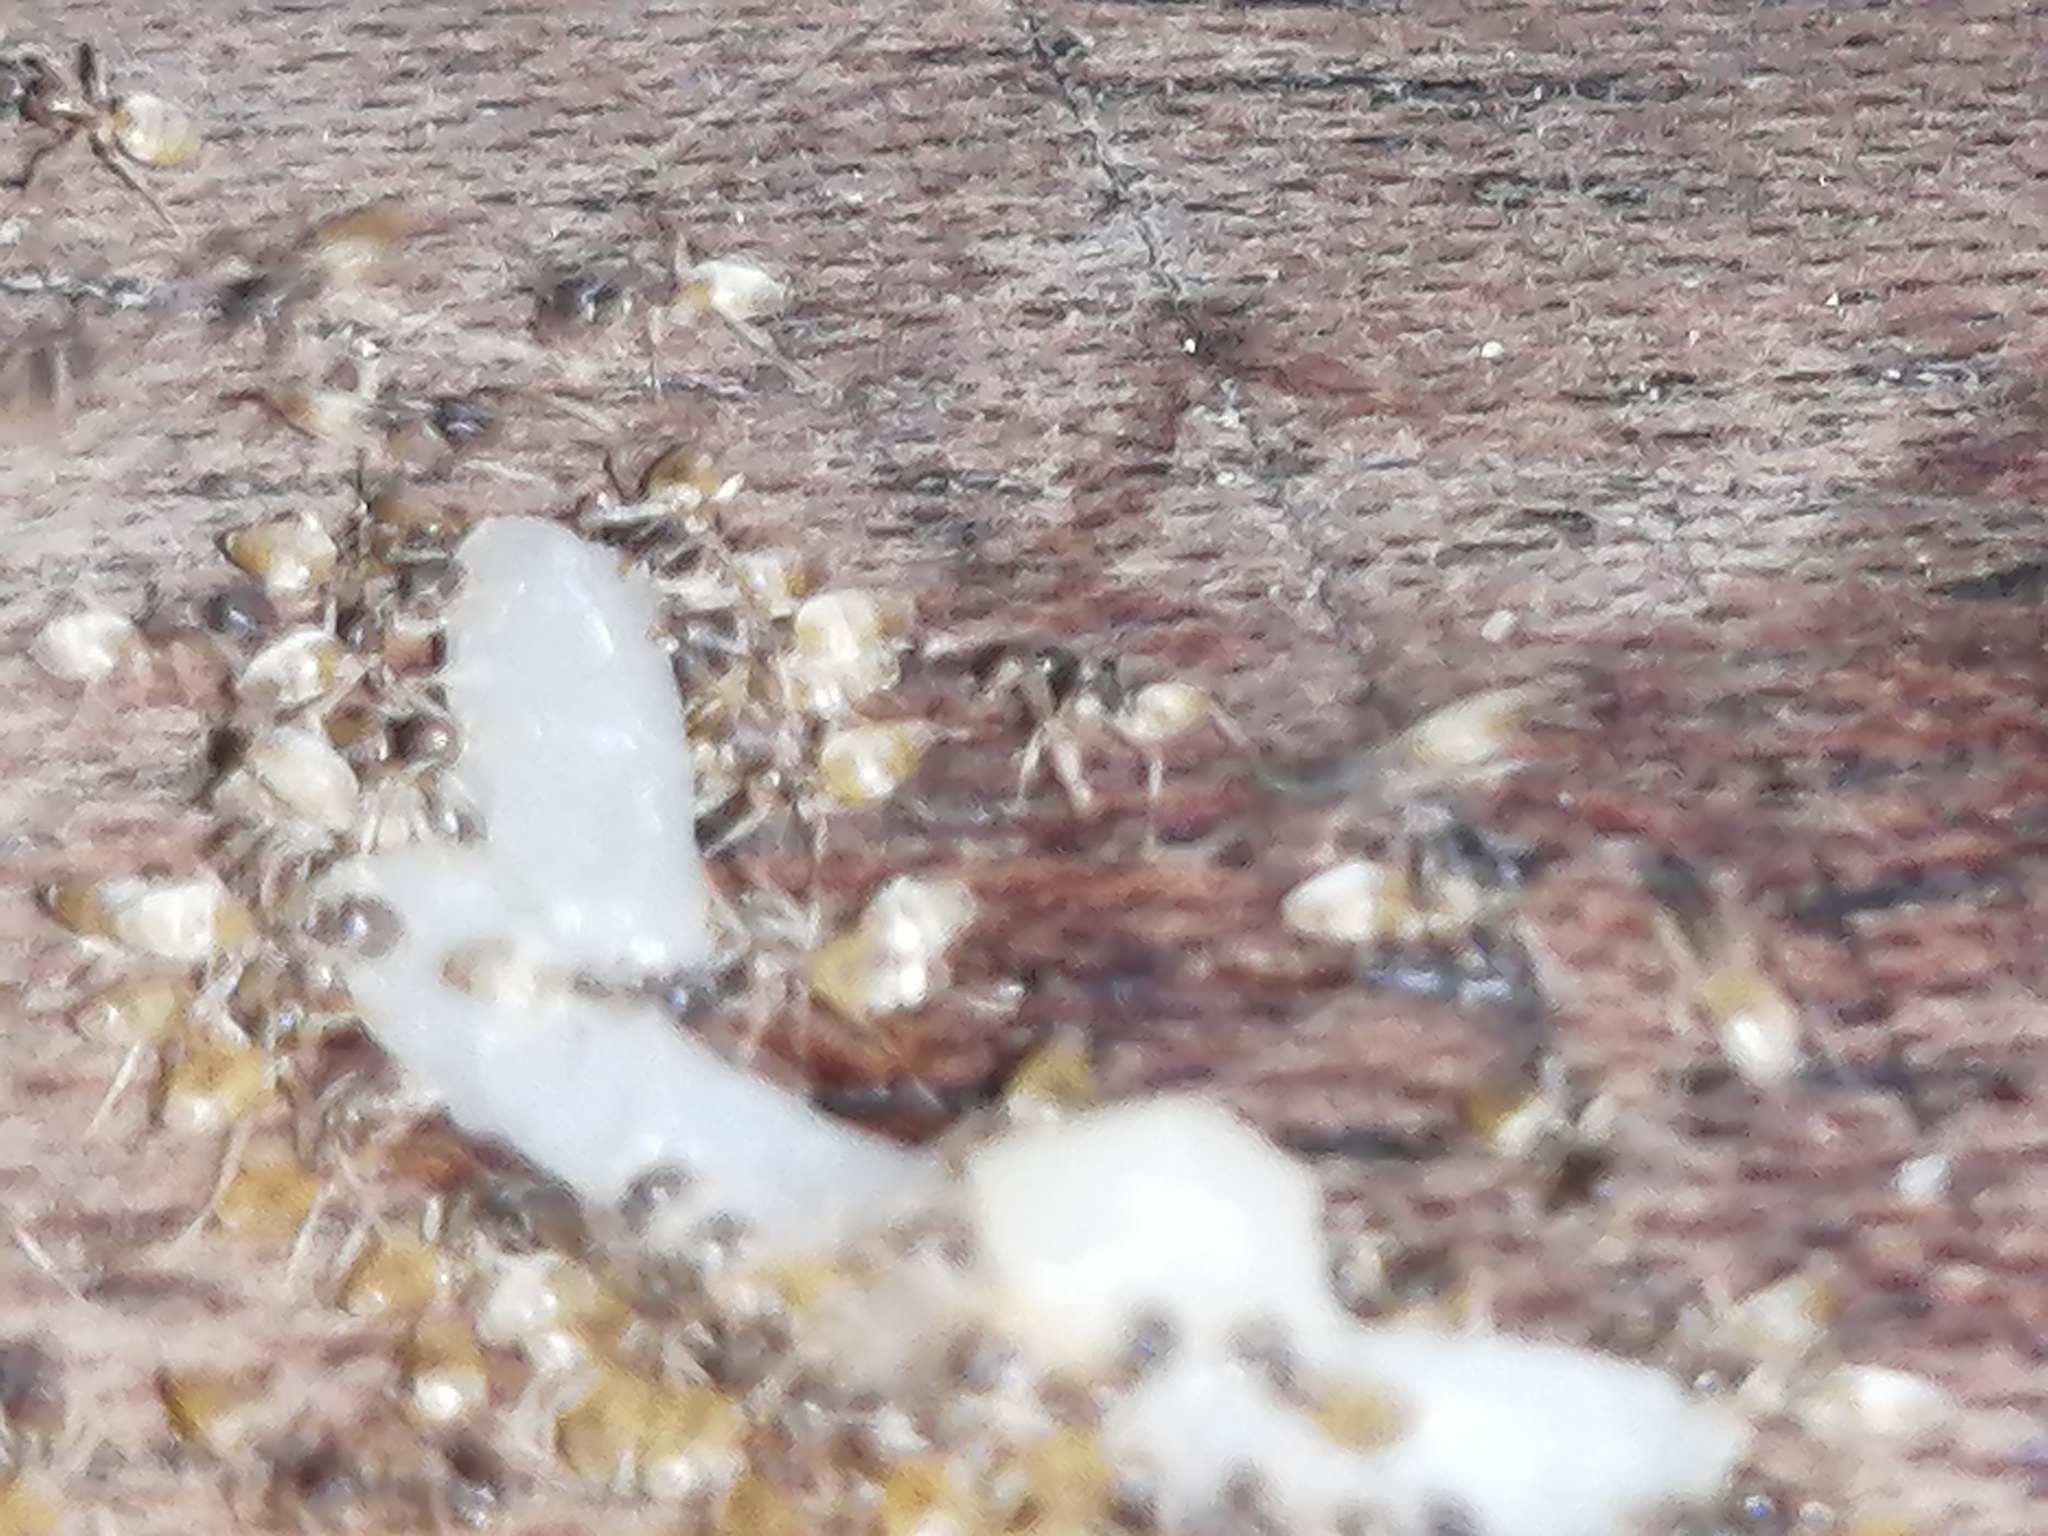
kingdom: Animalia
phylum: Arthropoda
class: Insecta
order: Hymenoptera
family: Formicidae
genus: Tapinoma
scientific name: Tapinoma melanocephalum
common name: Ghost ant
